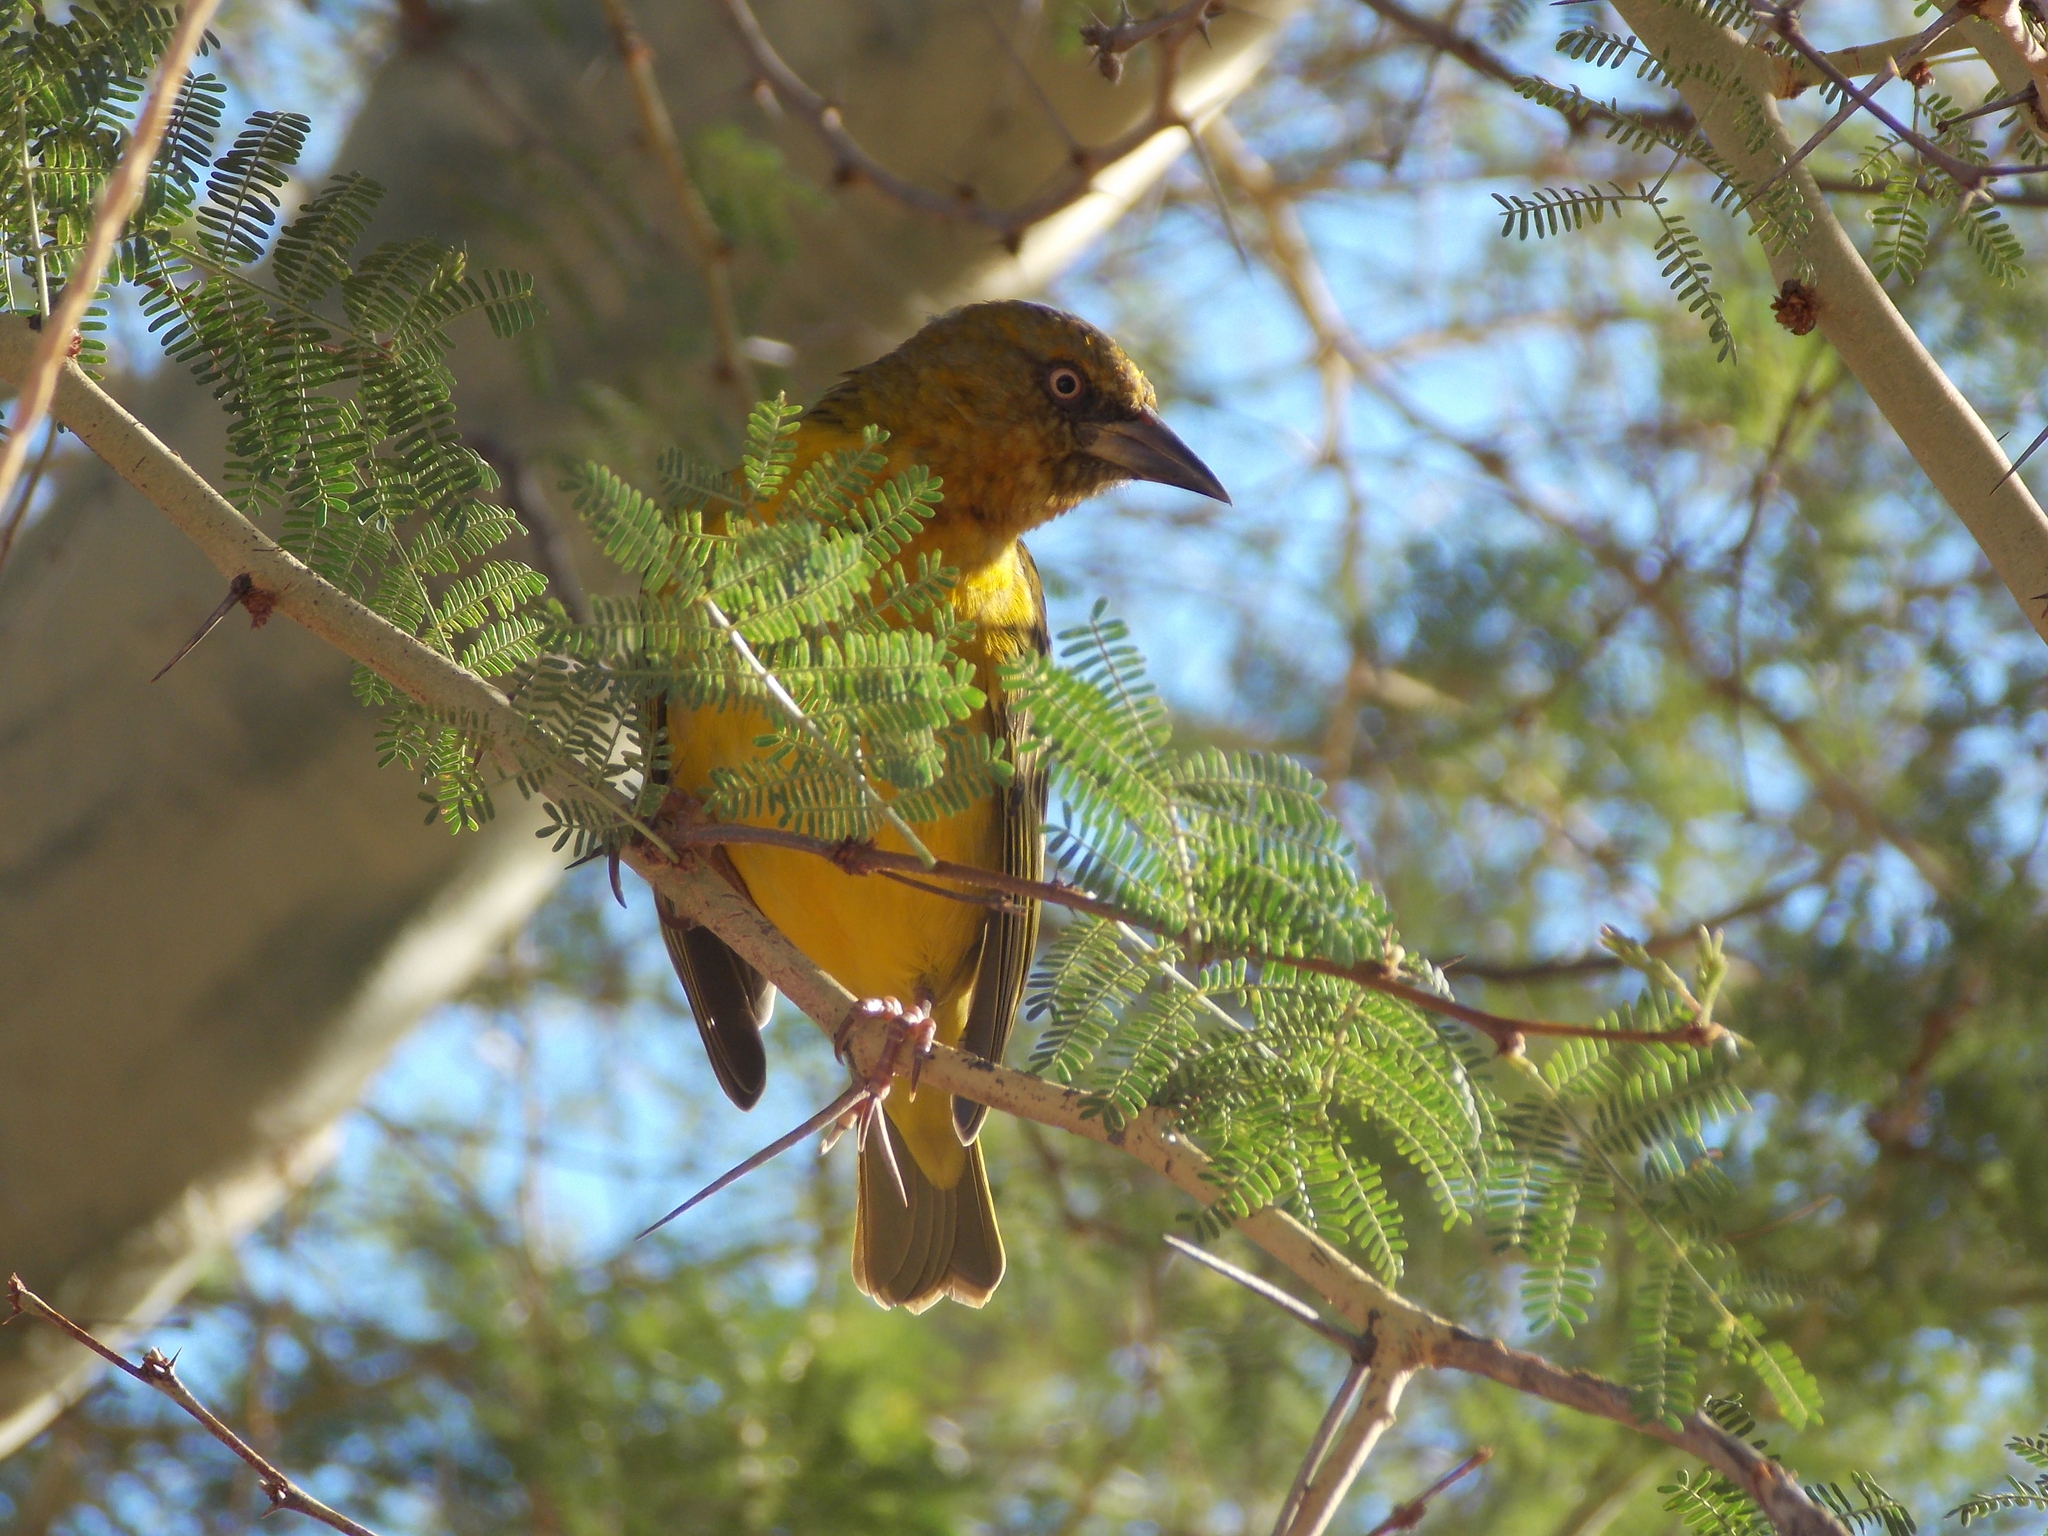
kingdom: Animalia
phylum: Chordata
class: Aves
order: Passeriformes
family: Ploceidae
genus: Ploceus
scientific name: Ploceus capensis
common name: Cape weaver
